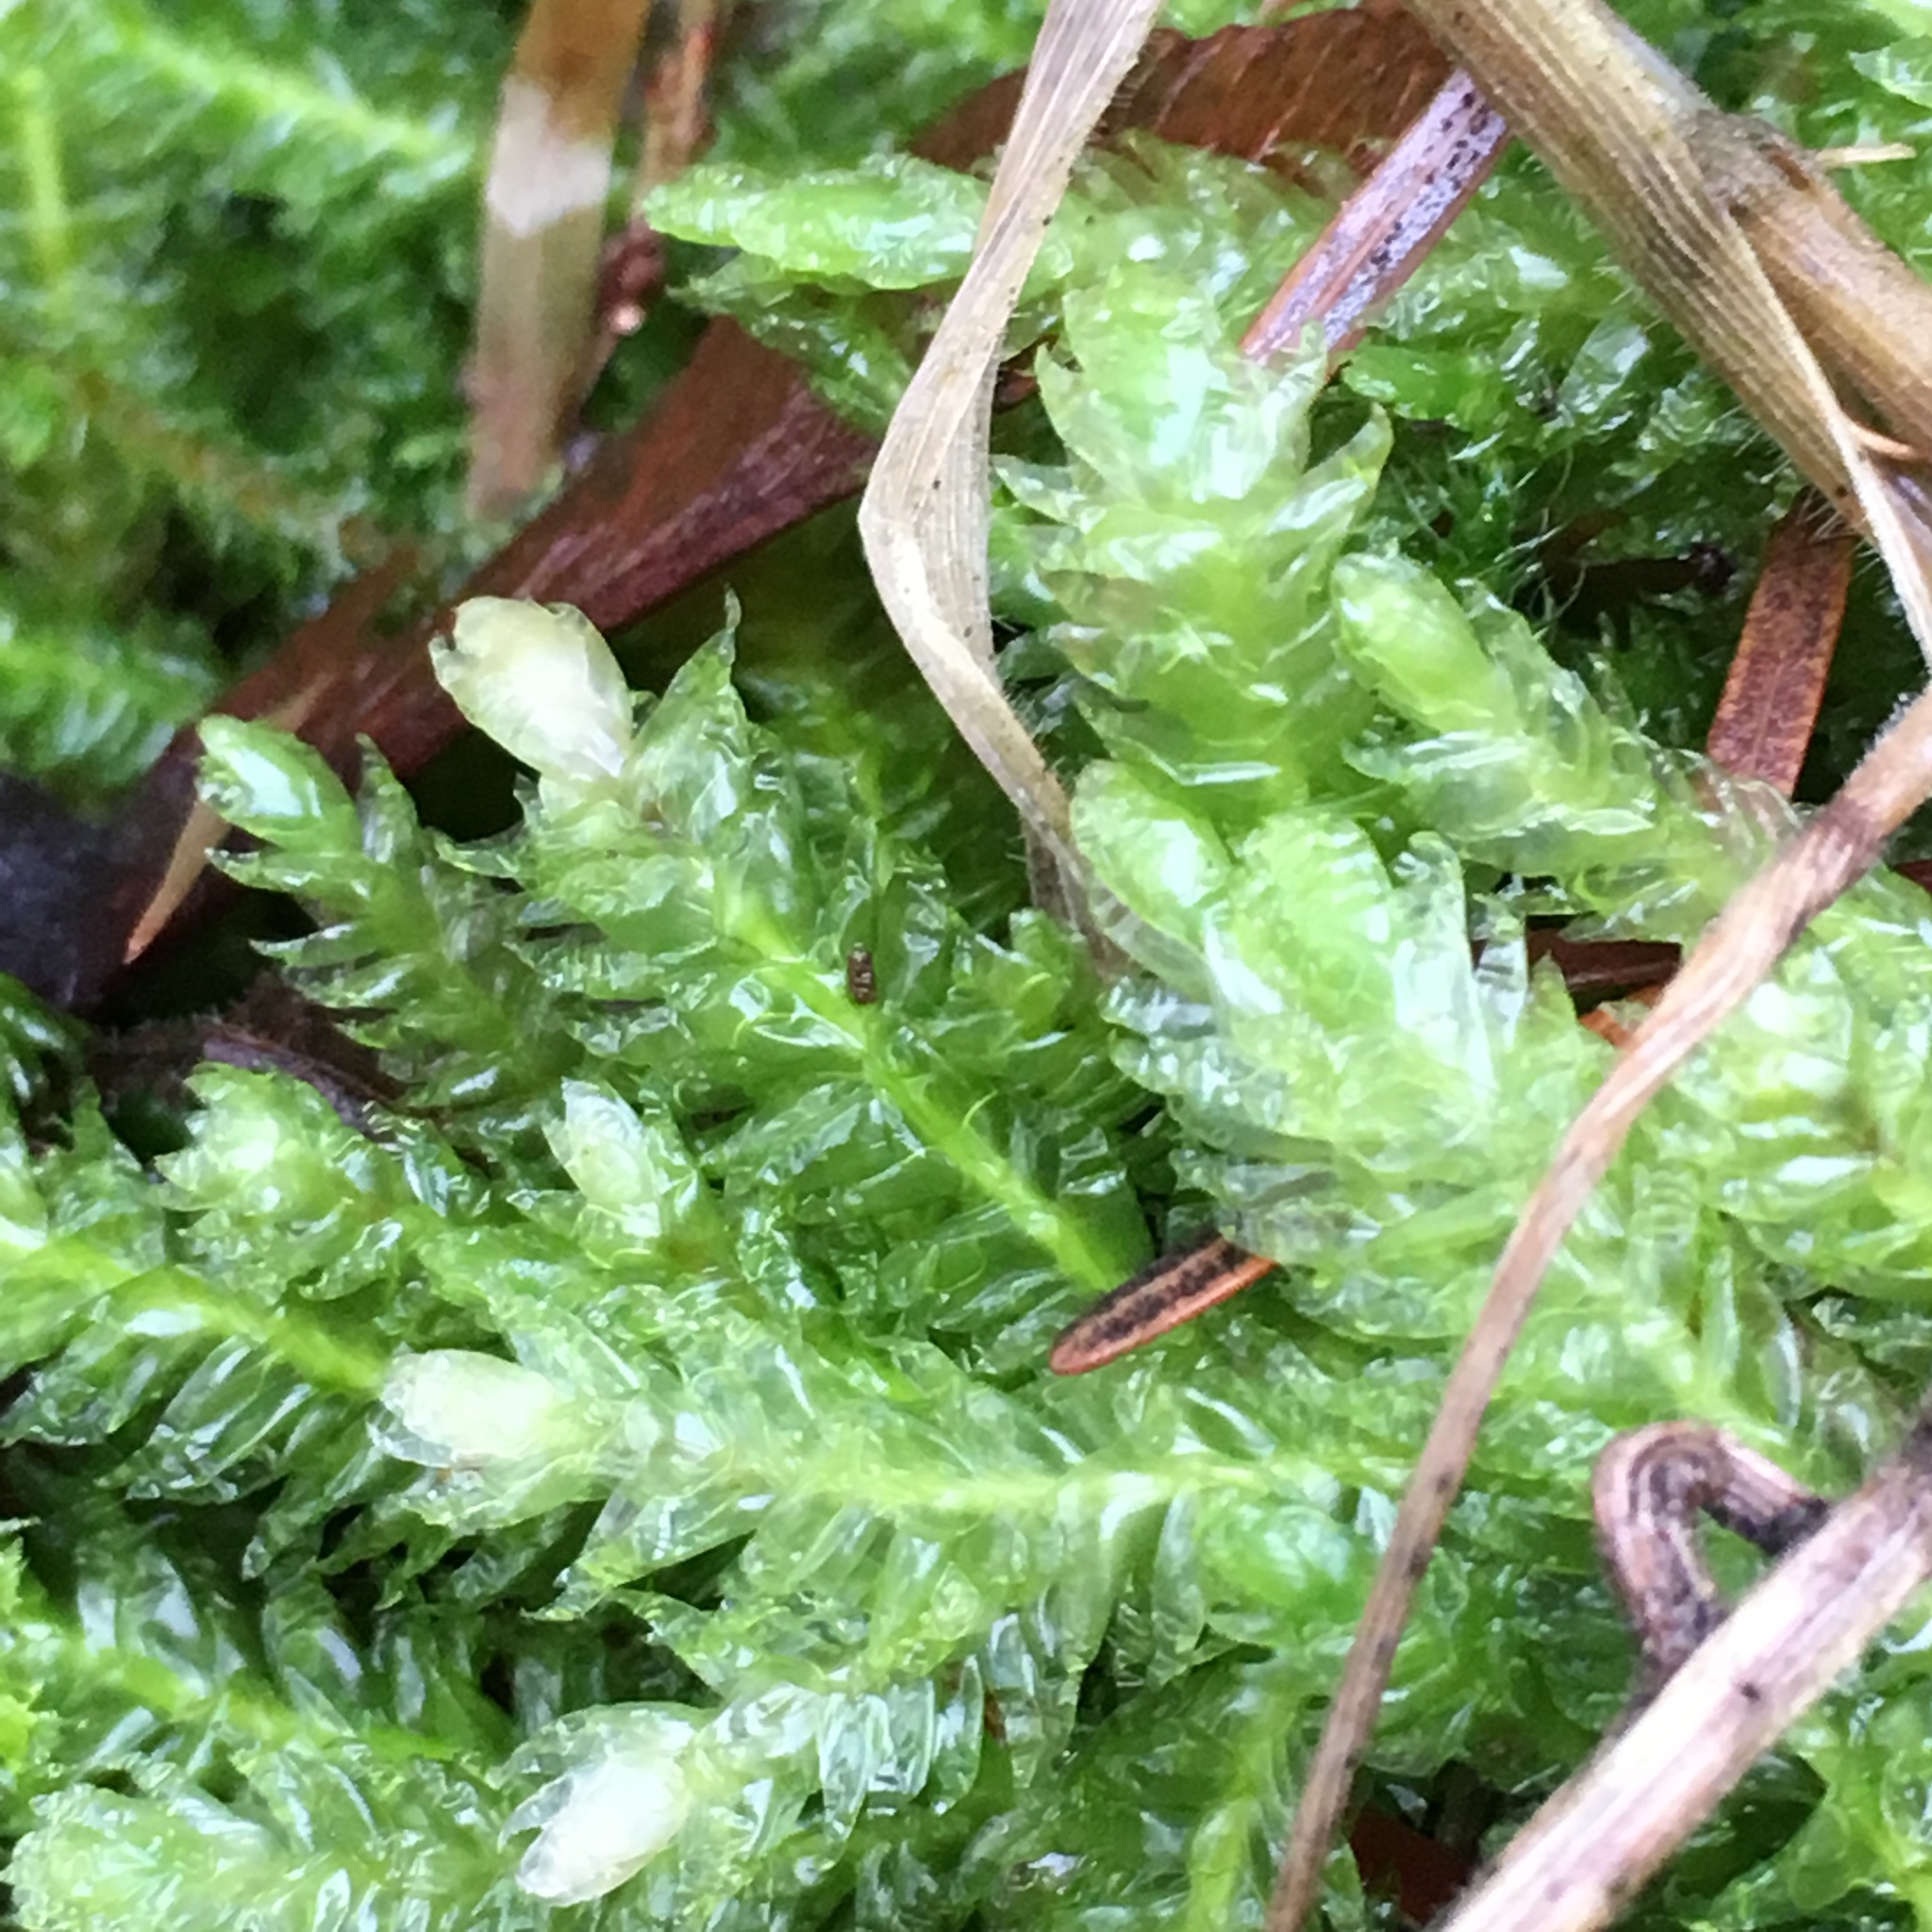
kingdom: Plantae
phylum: Bryophyta
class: Bryopsida
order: Hypnales
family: Plagiotheciaceae
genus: Plagiothecium
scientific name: Plagiothecium undulatum
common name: Waved silk-moss
